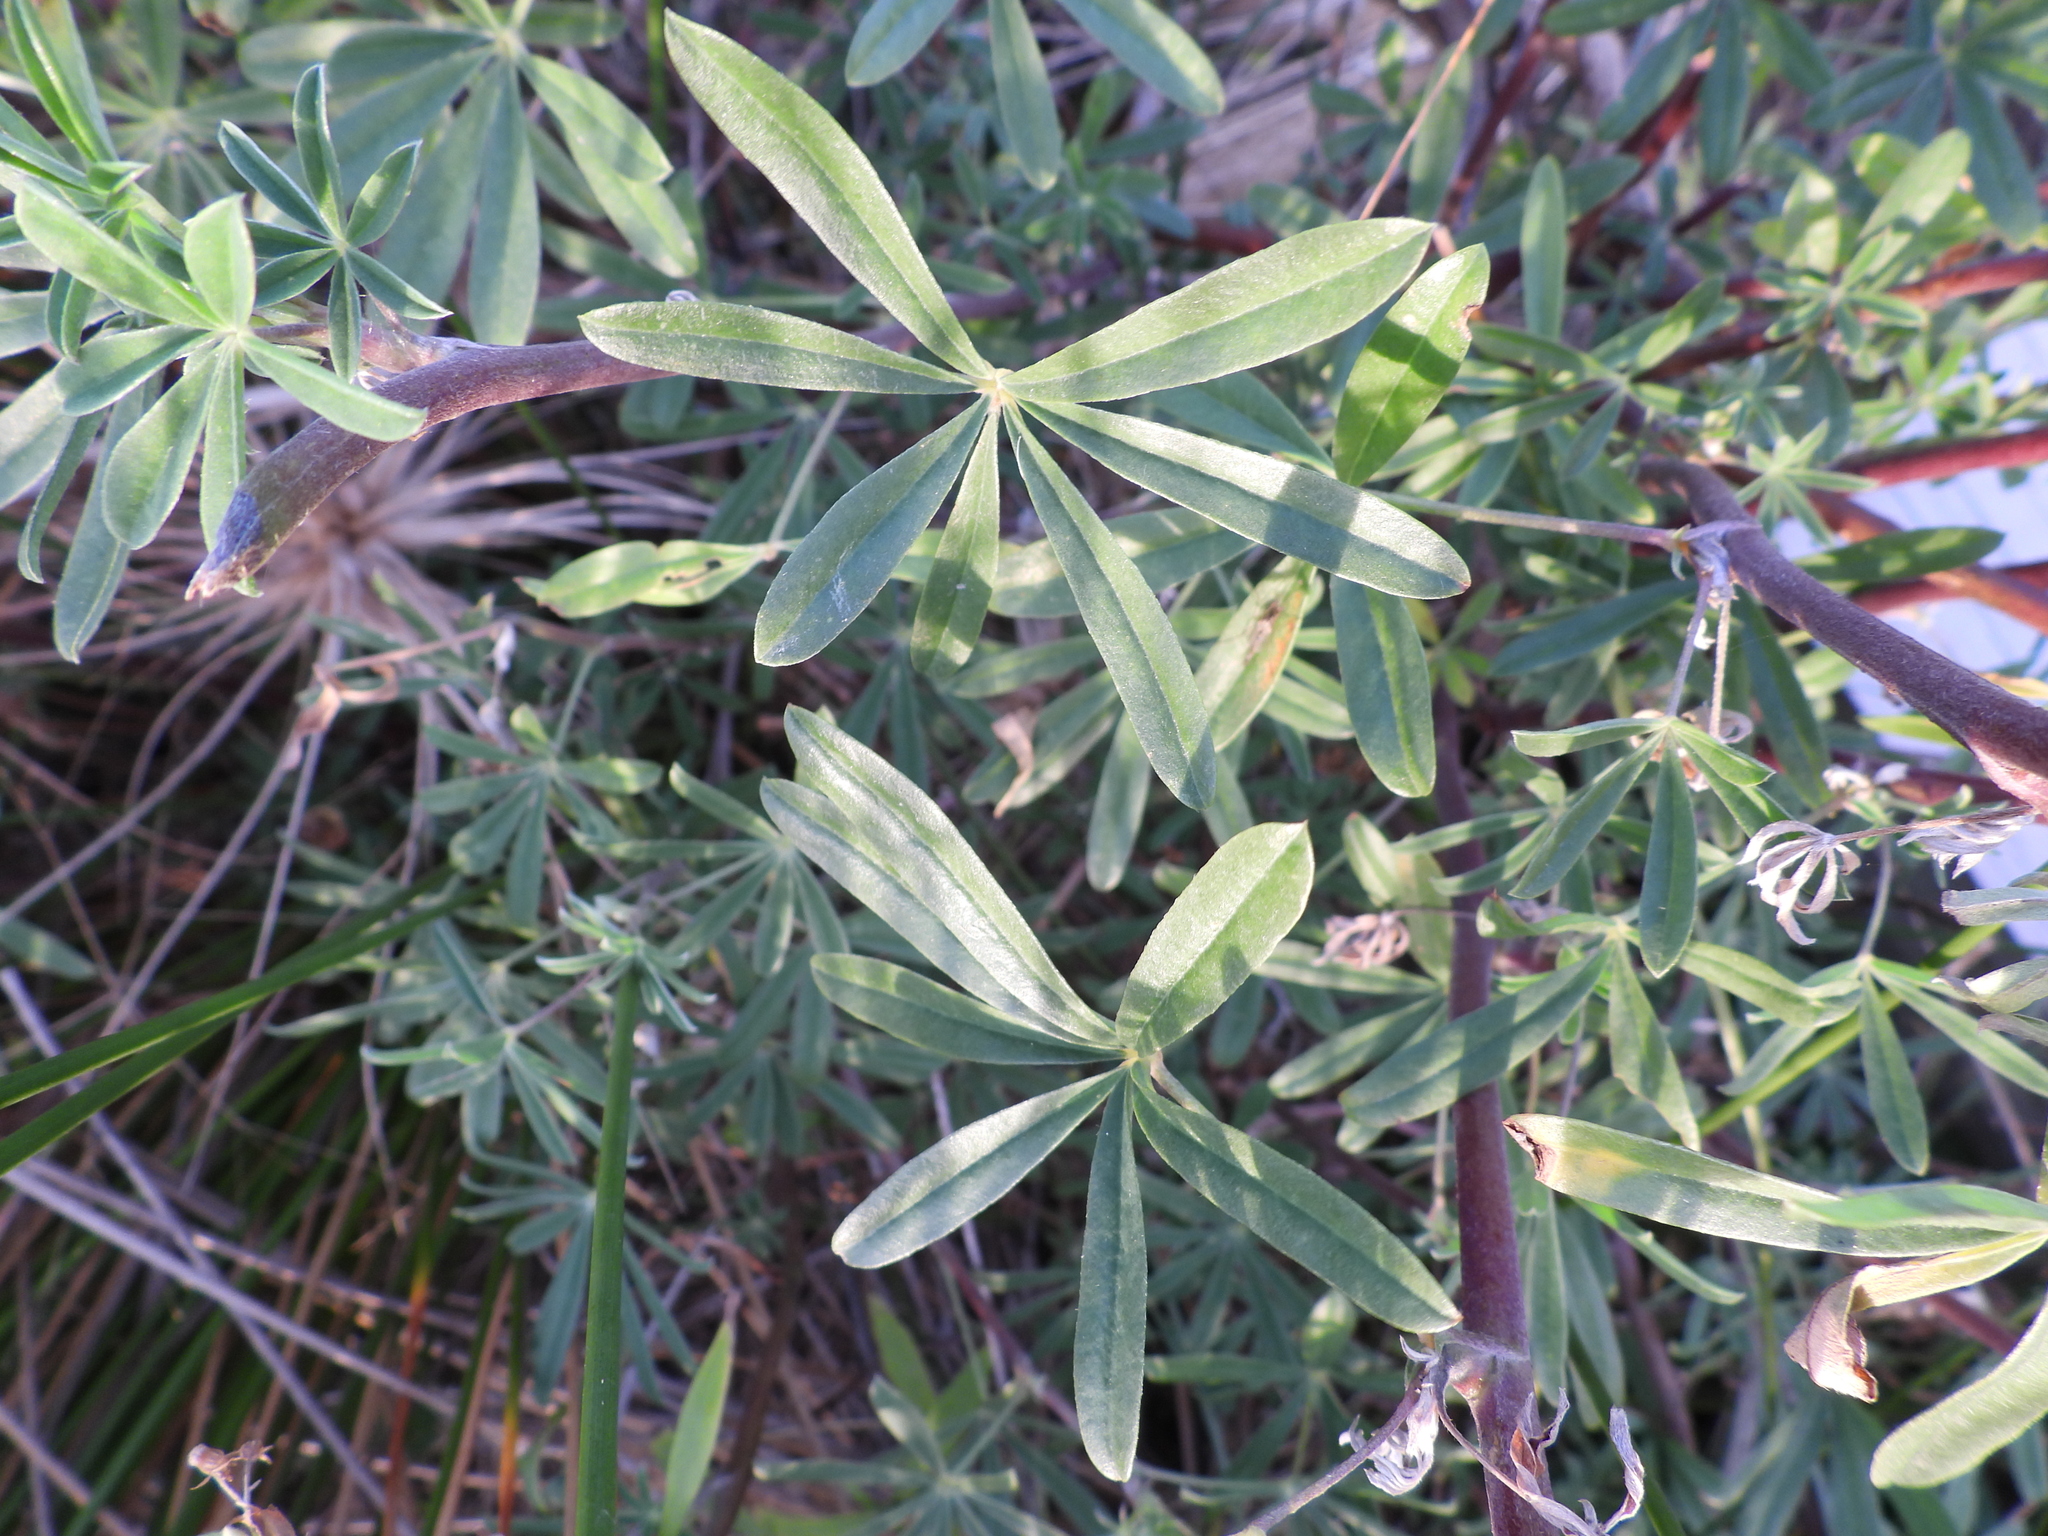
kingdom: Plantae
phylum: Tracheophyta
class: Magnoliopsida
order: Fabales
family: Fabaceae
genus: Lupinus
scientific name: Lupinus arboreus
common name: Yellow bush lupine
